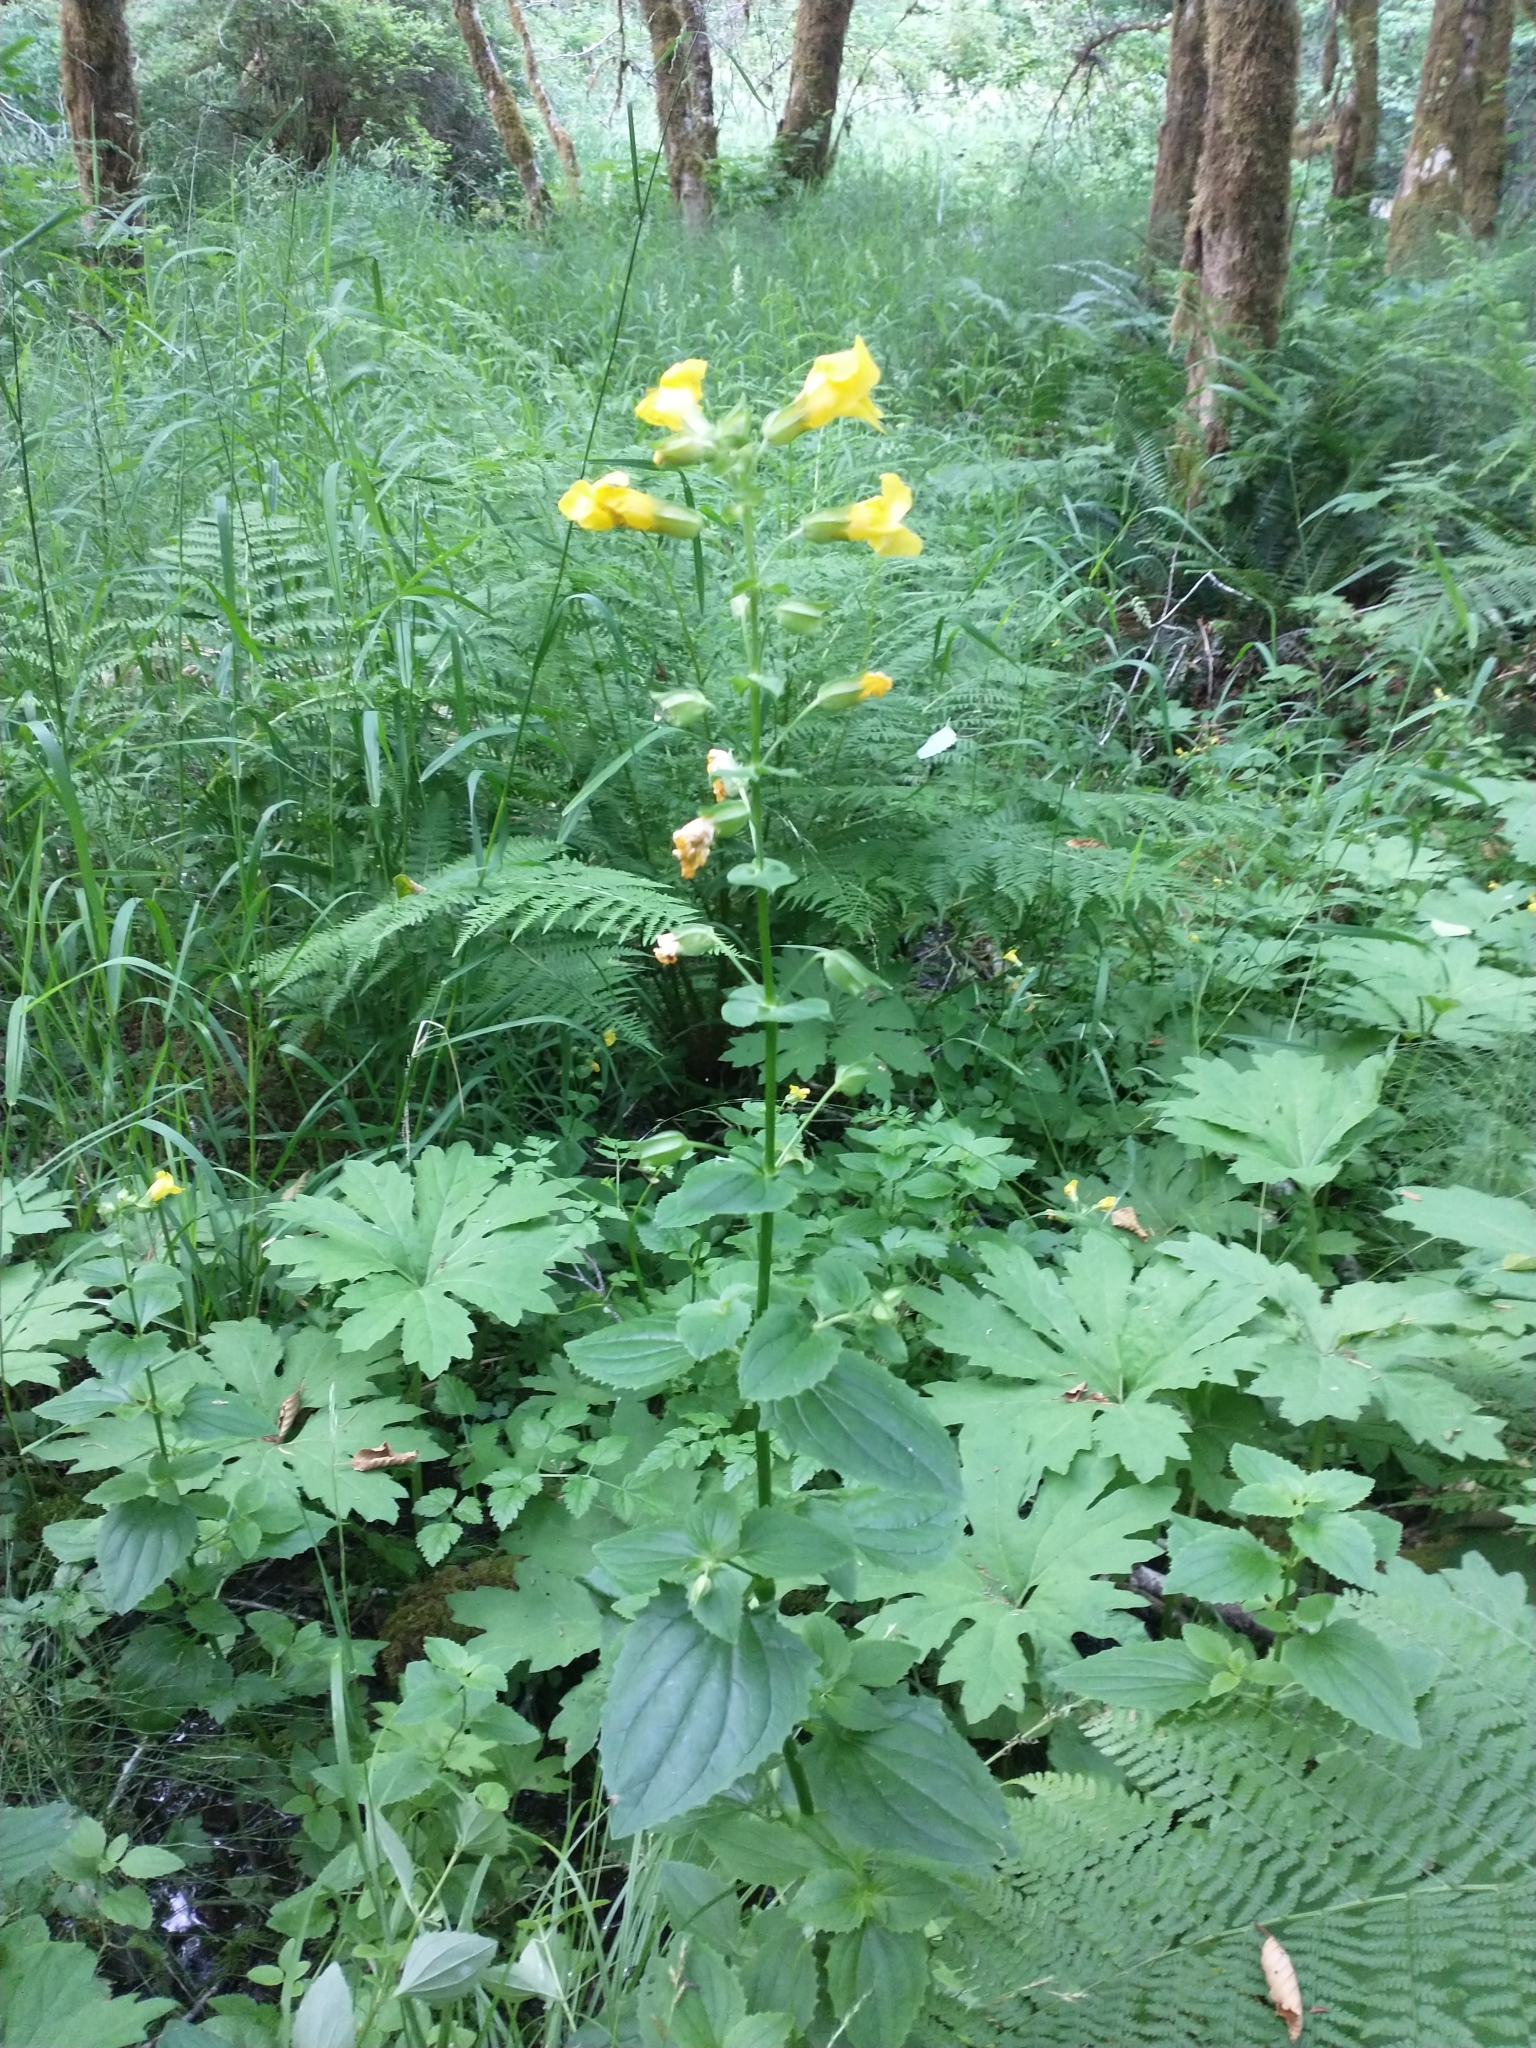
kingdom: Plantae
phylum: Tracheophyta
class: Magnoliopsida
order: Lamiales
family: Phrymaceae
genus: Erythranthe
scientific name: Erythranthe decora
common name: Mannered monkeyflower
